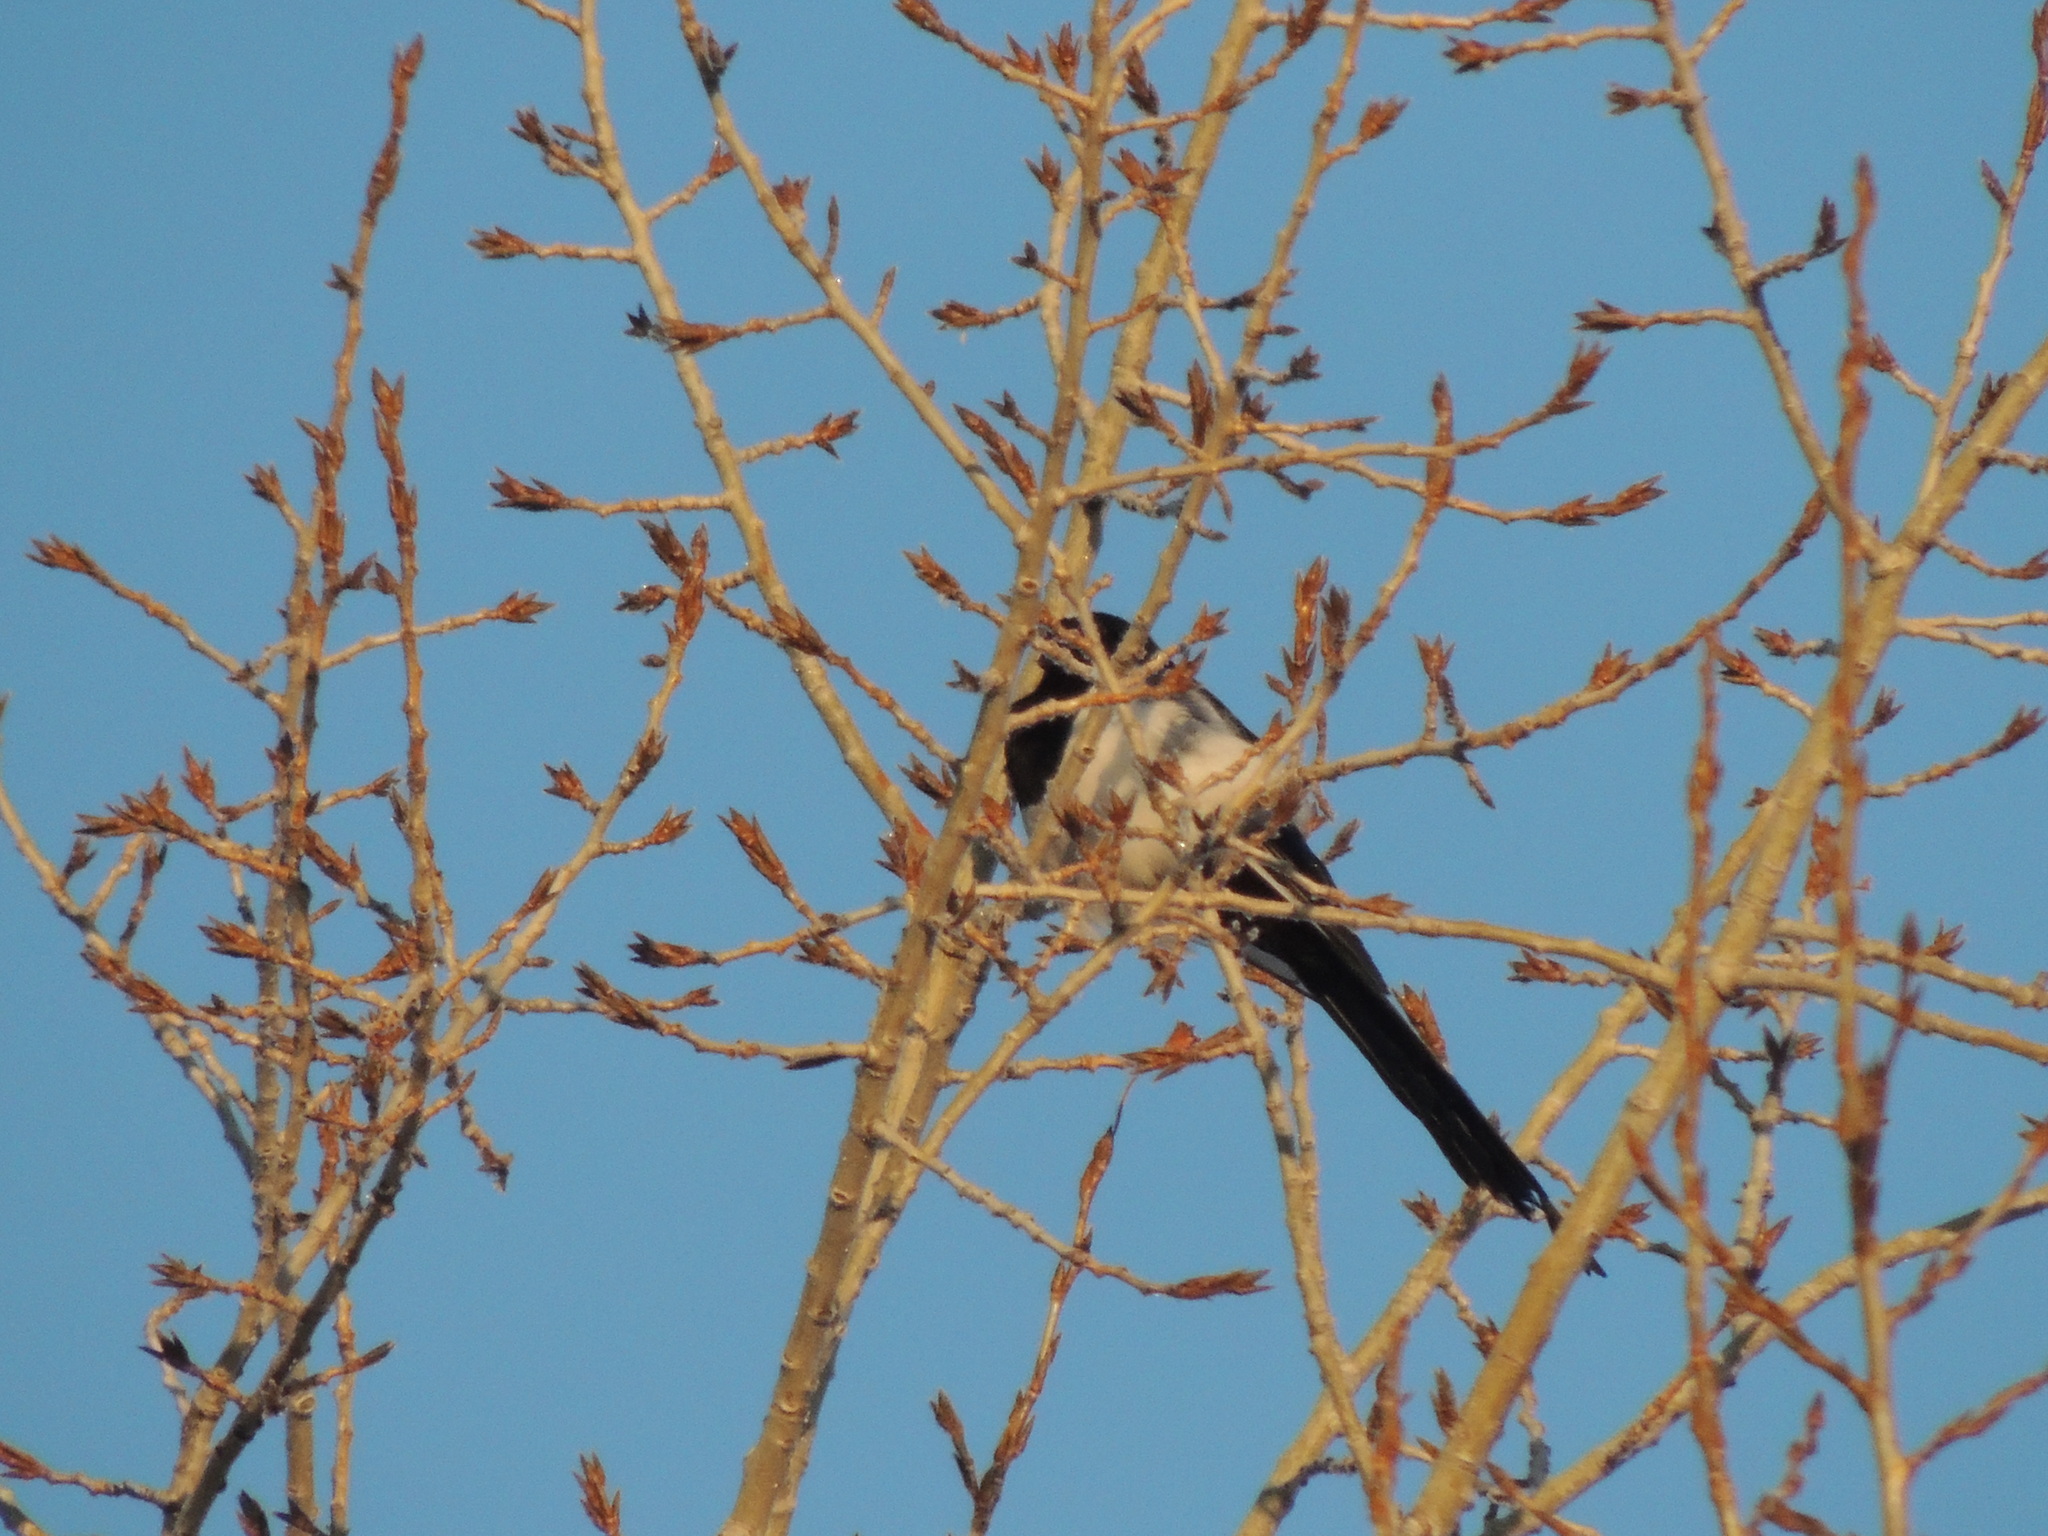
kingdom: Animalia
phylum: Chordata
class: Aves
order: Passeriformes
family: Corvidae
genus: Pica
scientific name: Pica pica
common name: Eurasian magpie
